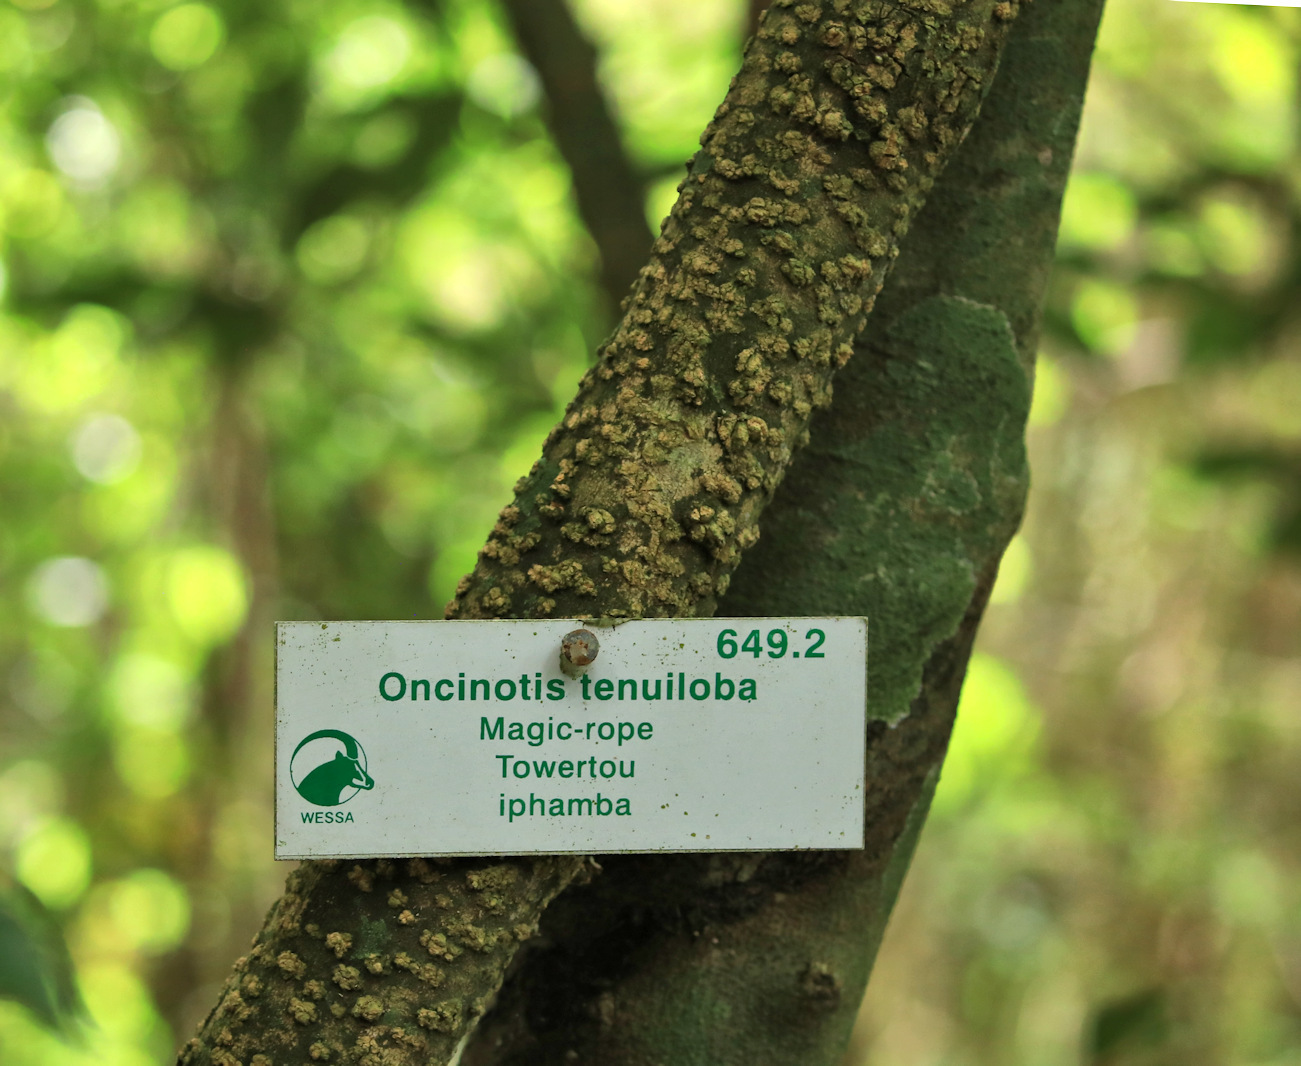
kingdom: Plantae
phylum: Tracheophyta
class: Magnoliopsida
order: Gentianales
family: Apocynaceae
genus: Oncinotis
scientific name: Oncinotis tenuiloba
